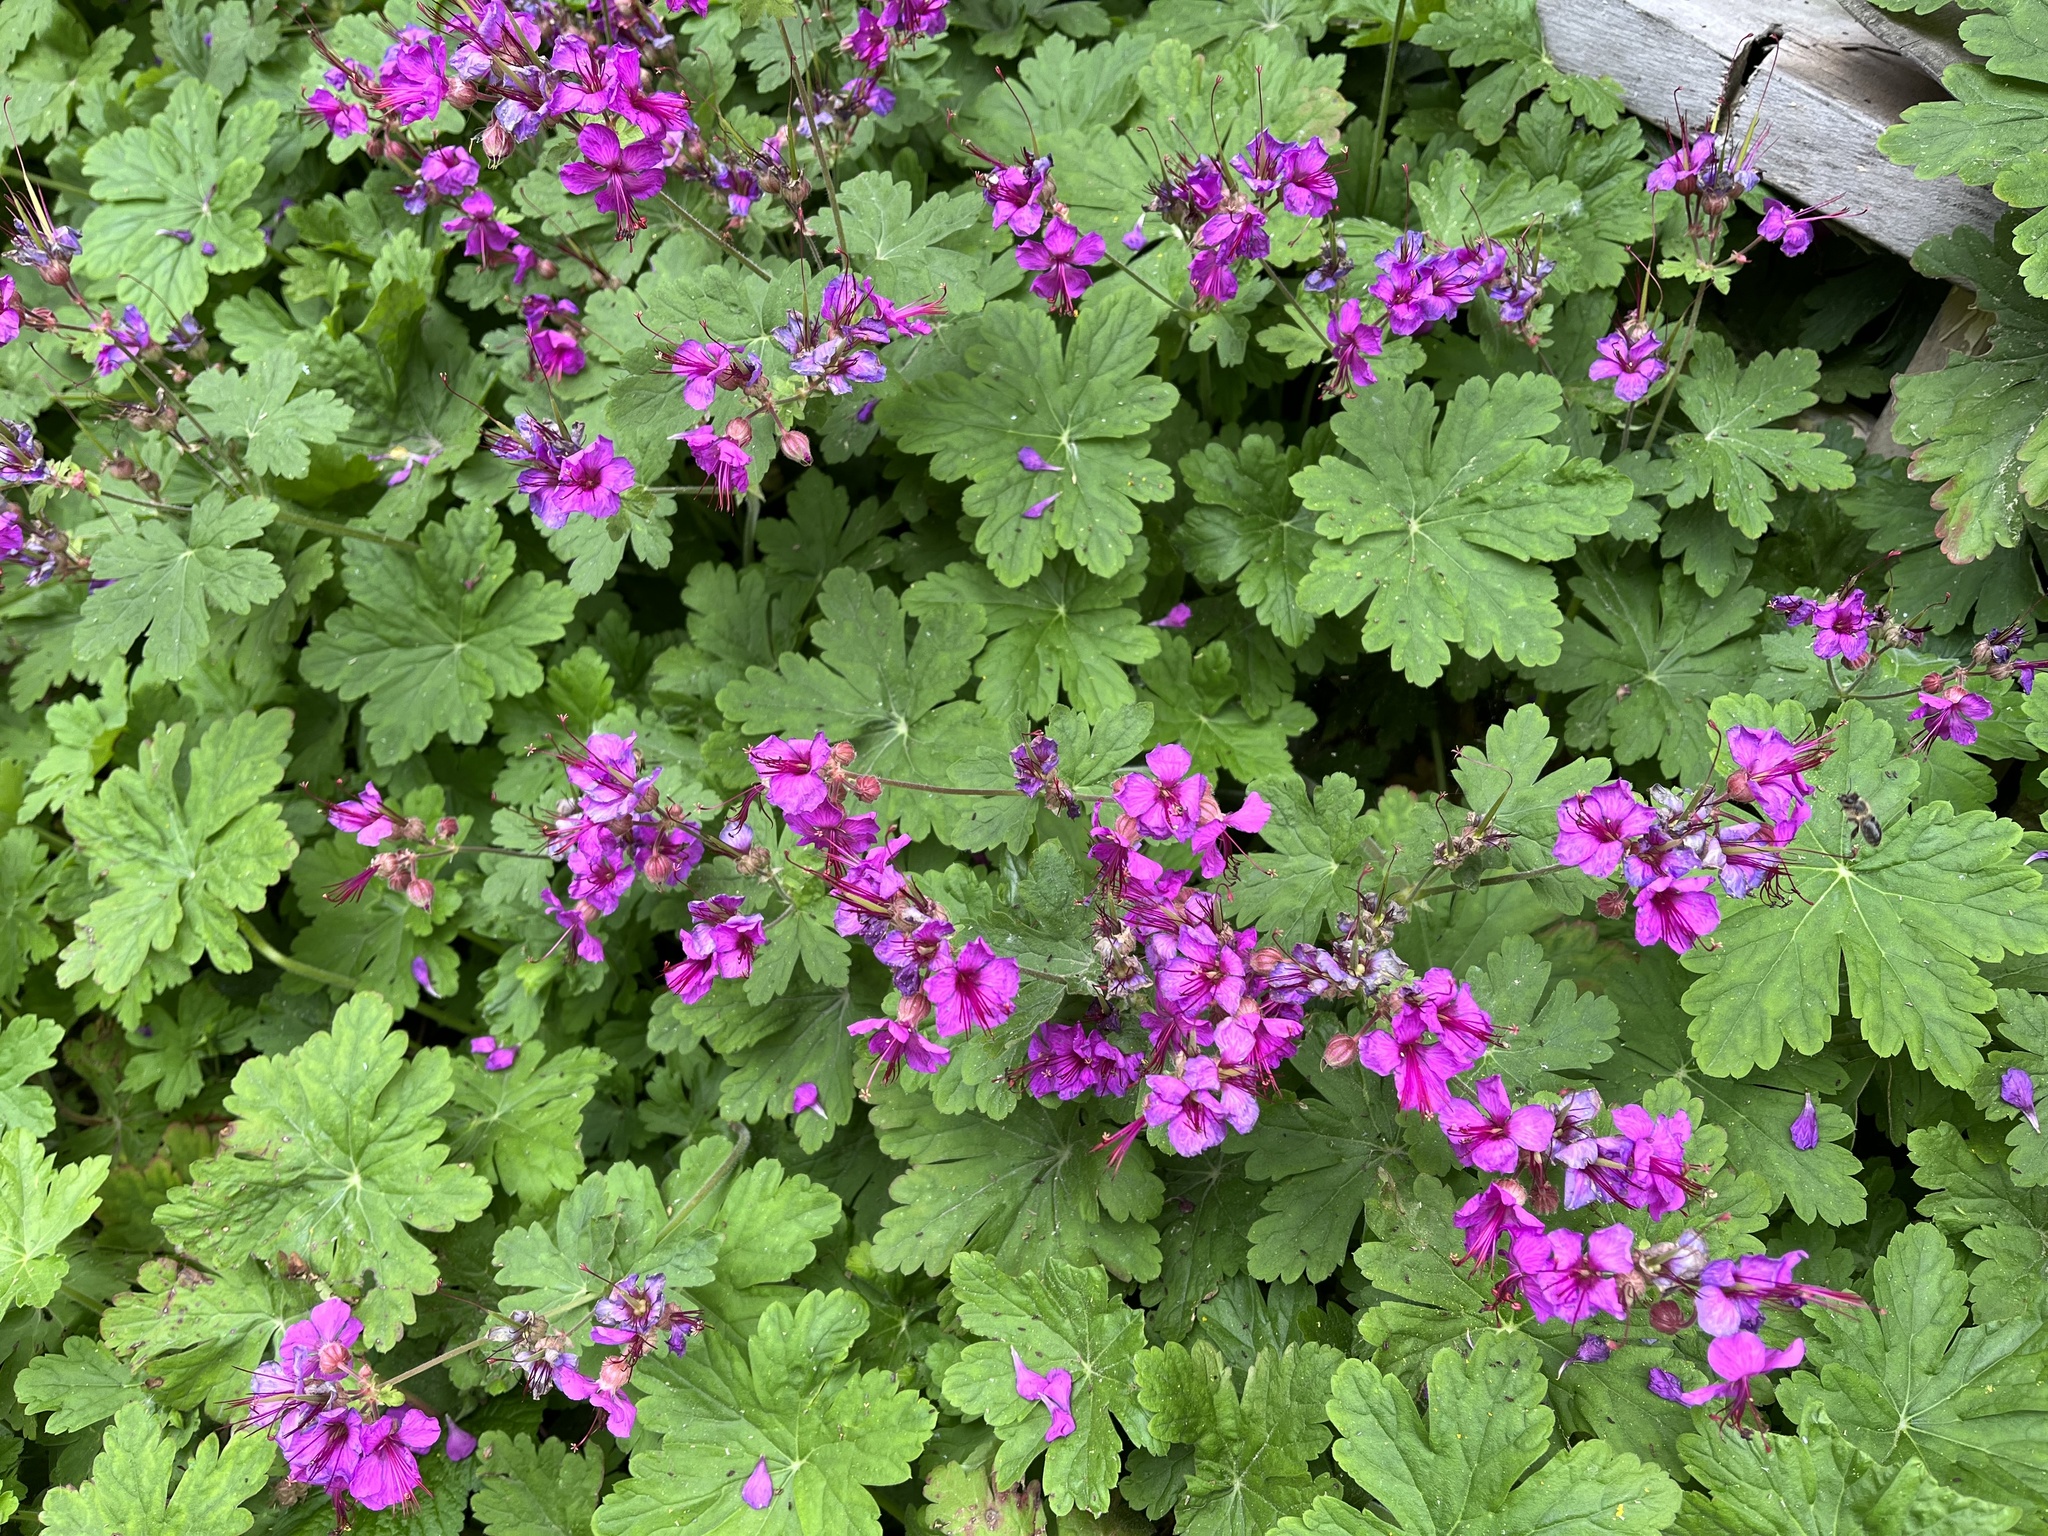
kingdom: Plantae
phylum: Tracheophyta
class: Magnoliopsida
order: Geraniales
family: Geraniaceae
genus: Geranium
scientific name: Geranium macrorrhizum
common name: Rock crane's-bill
